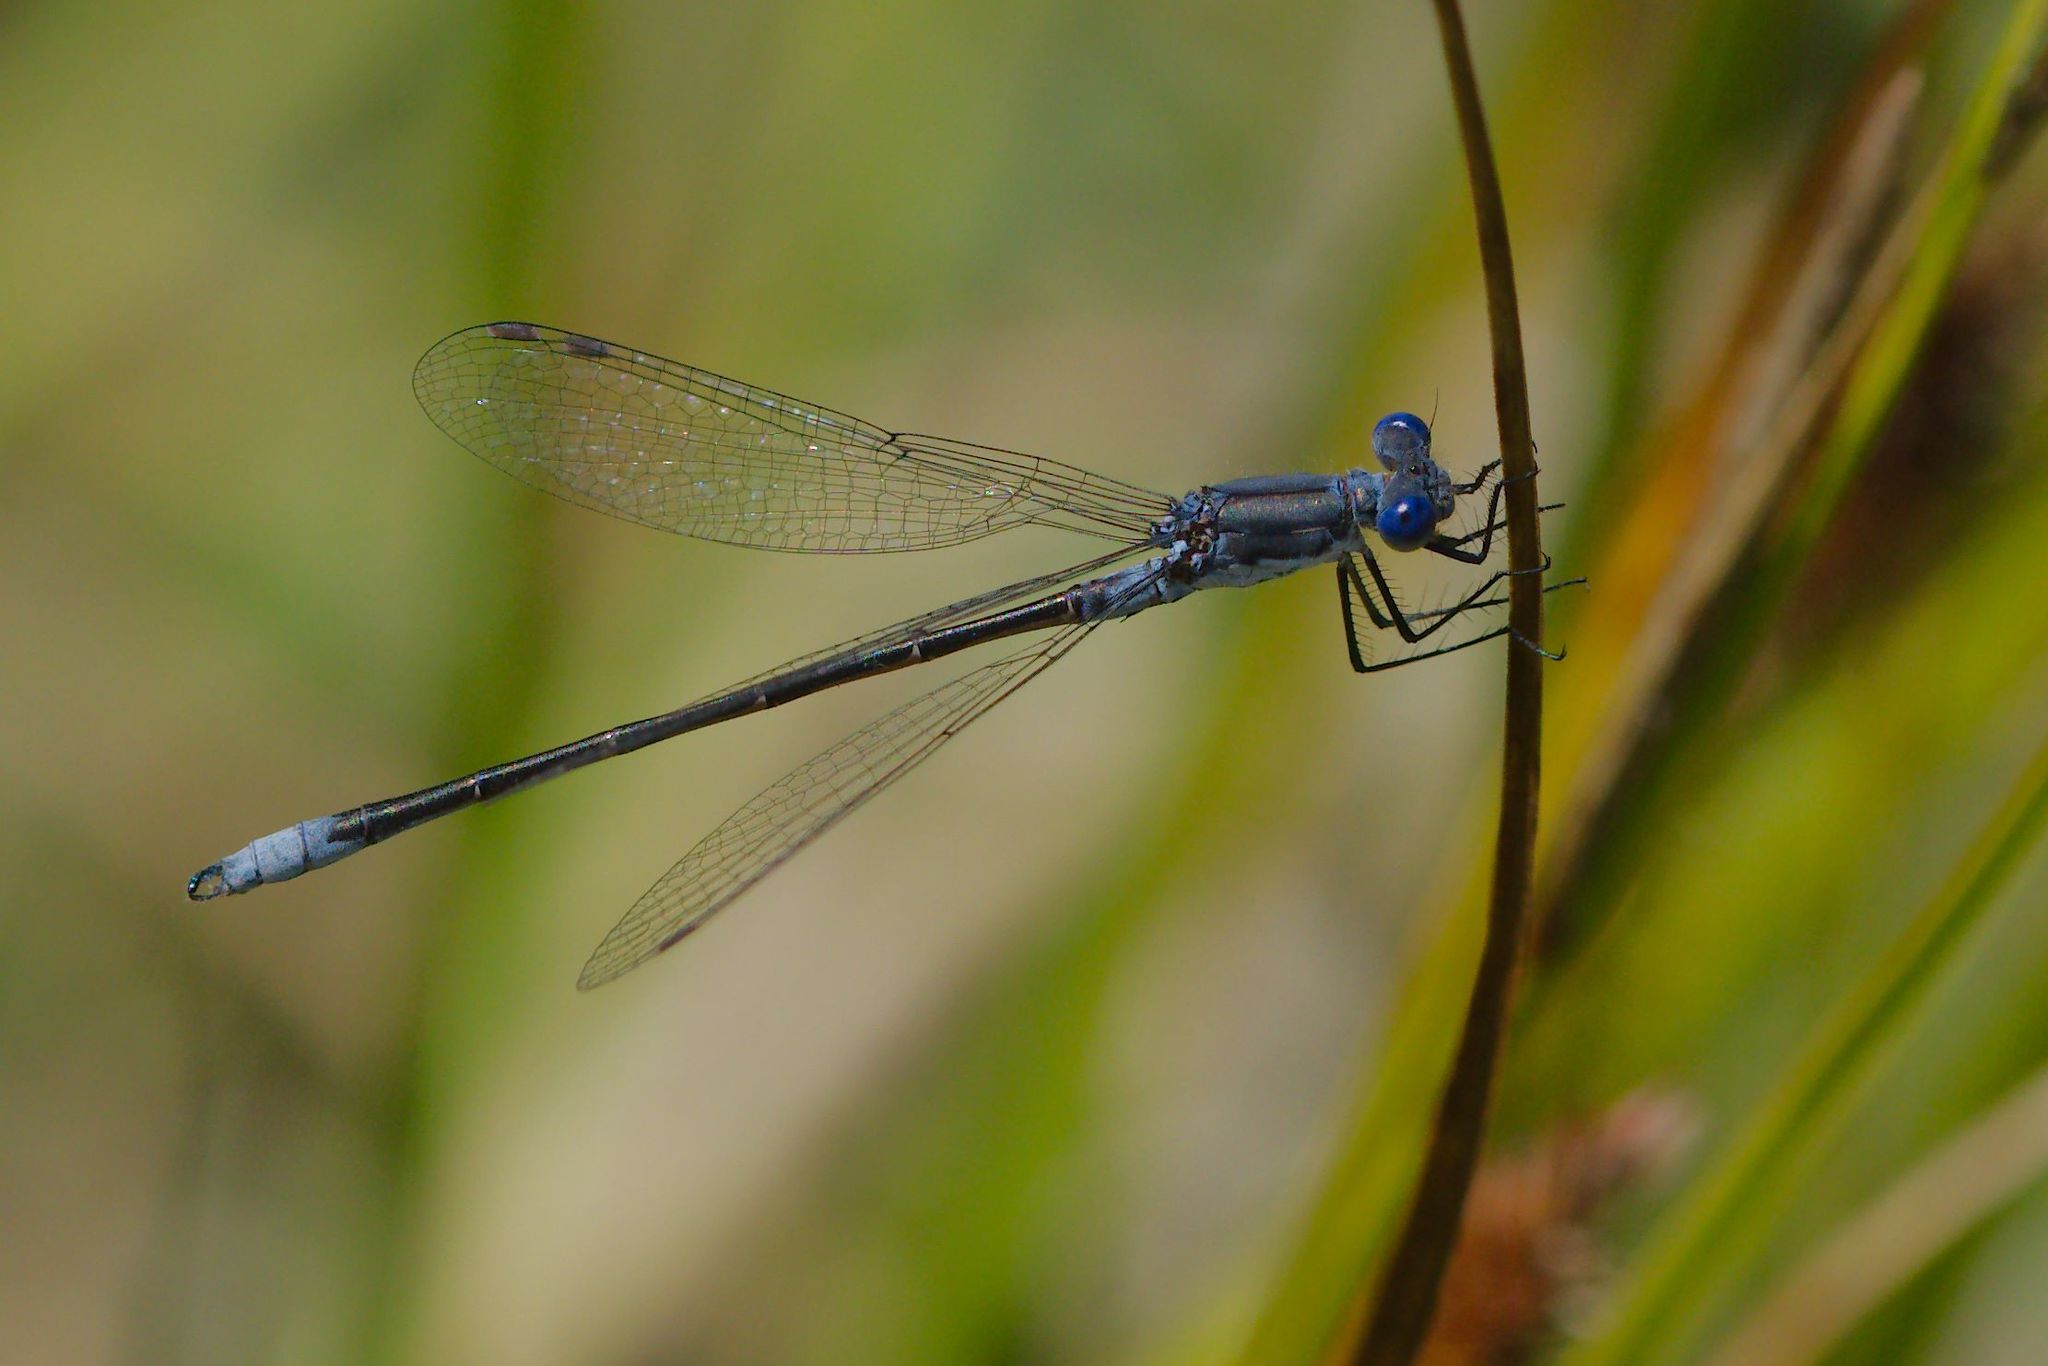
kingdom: Animalia
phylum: Arthropoda
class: Insecta
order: Odonata
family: Lestidae
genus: Lestes
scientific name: Lestes congener
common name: Spotted spreadwing
